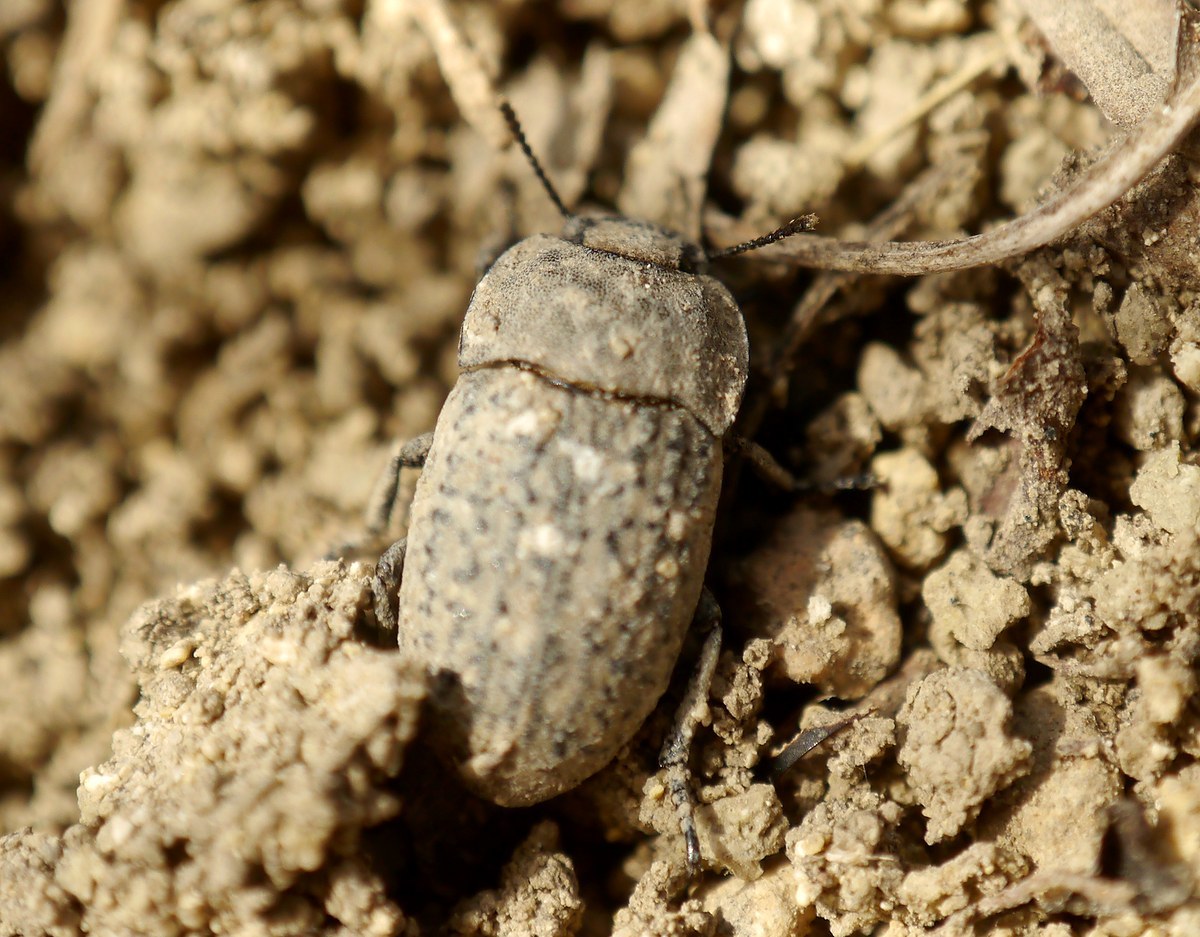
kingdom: Animalia
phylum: Arthropoda
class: Insecta
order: Coleoptera
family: Tenebrionidae
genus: Opatrum
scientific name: Opatrum sabulosum
